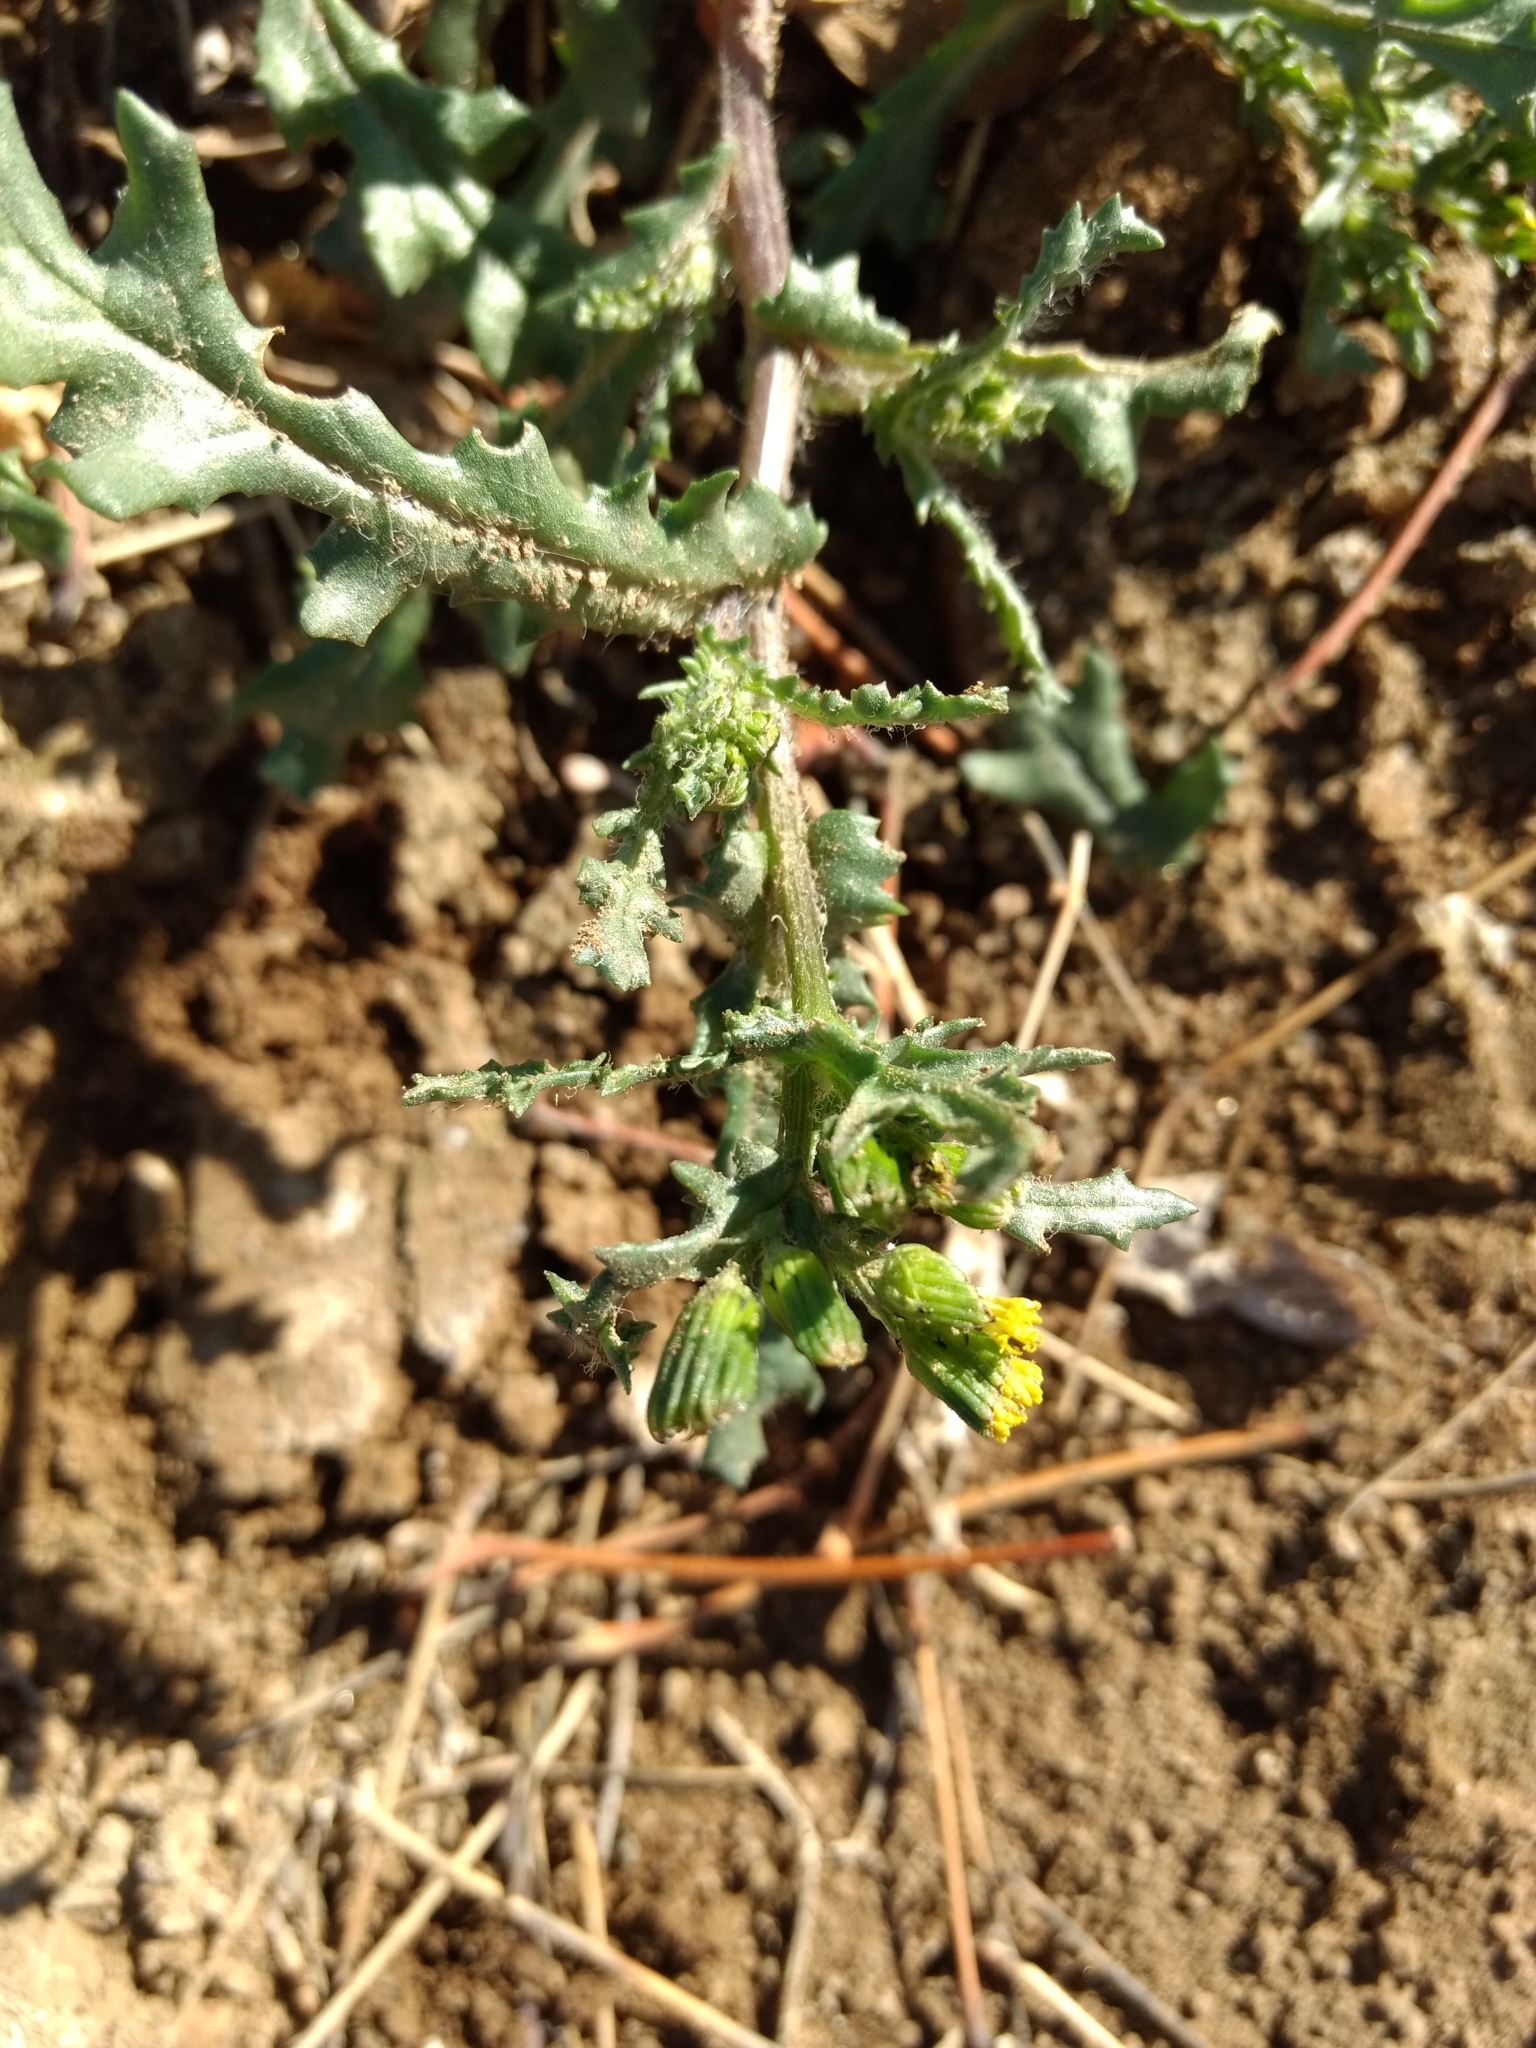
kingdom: Plantae
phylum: Tracheophyta
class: Magnoliopsida
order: Asterales
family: Asteraceae
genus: Senecio
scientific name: Senecio vulgaris
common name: Old-man-in-the-spring
